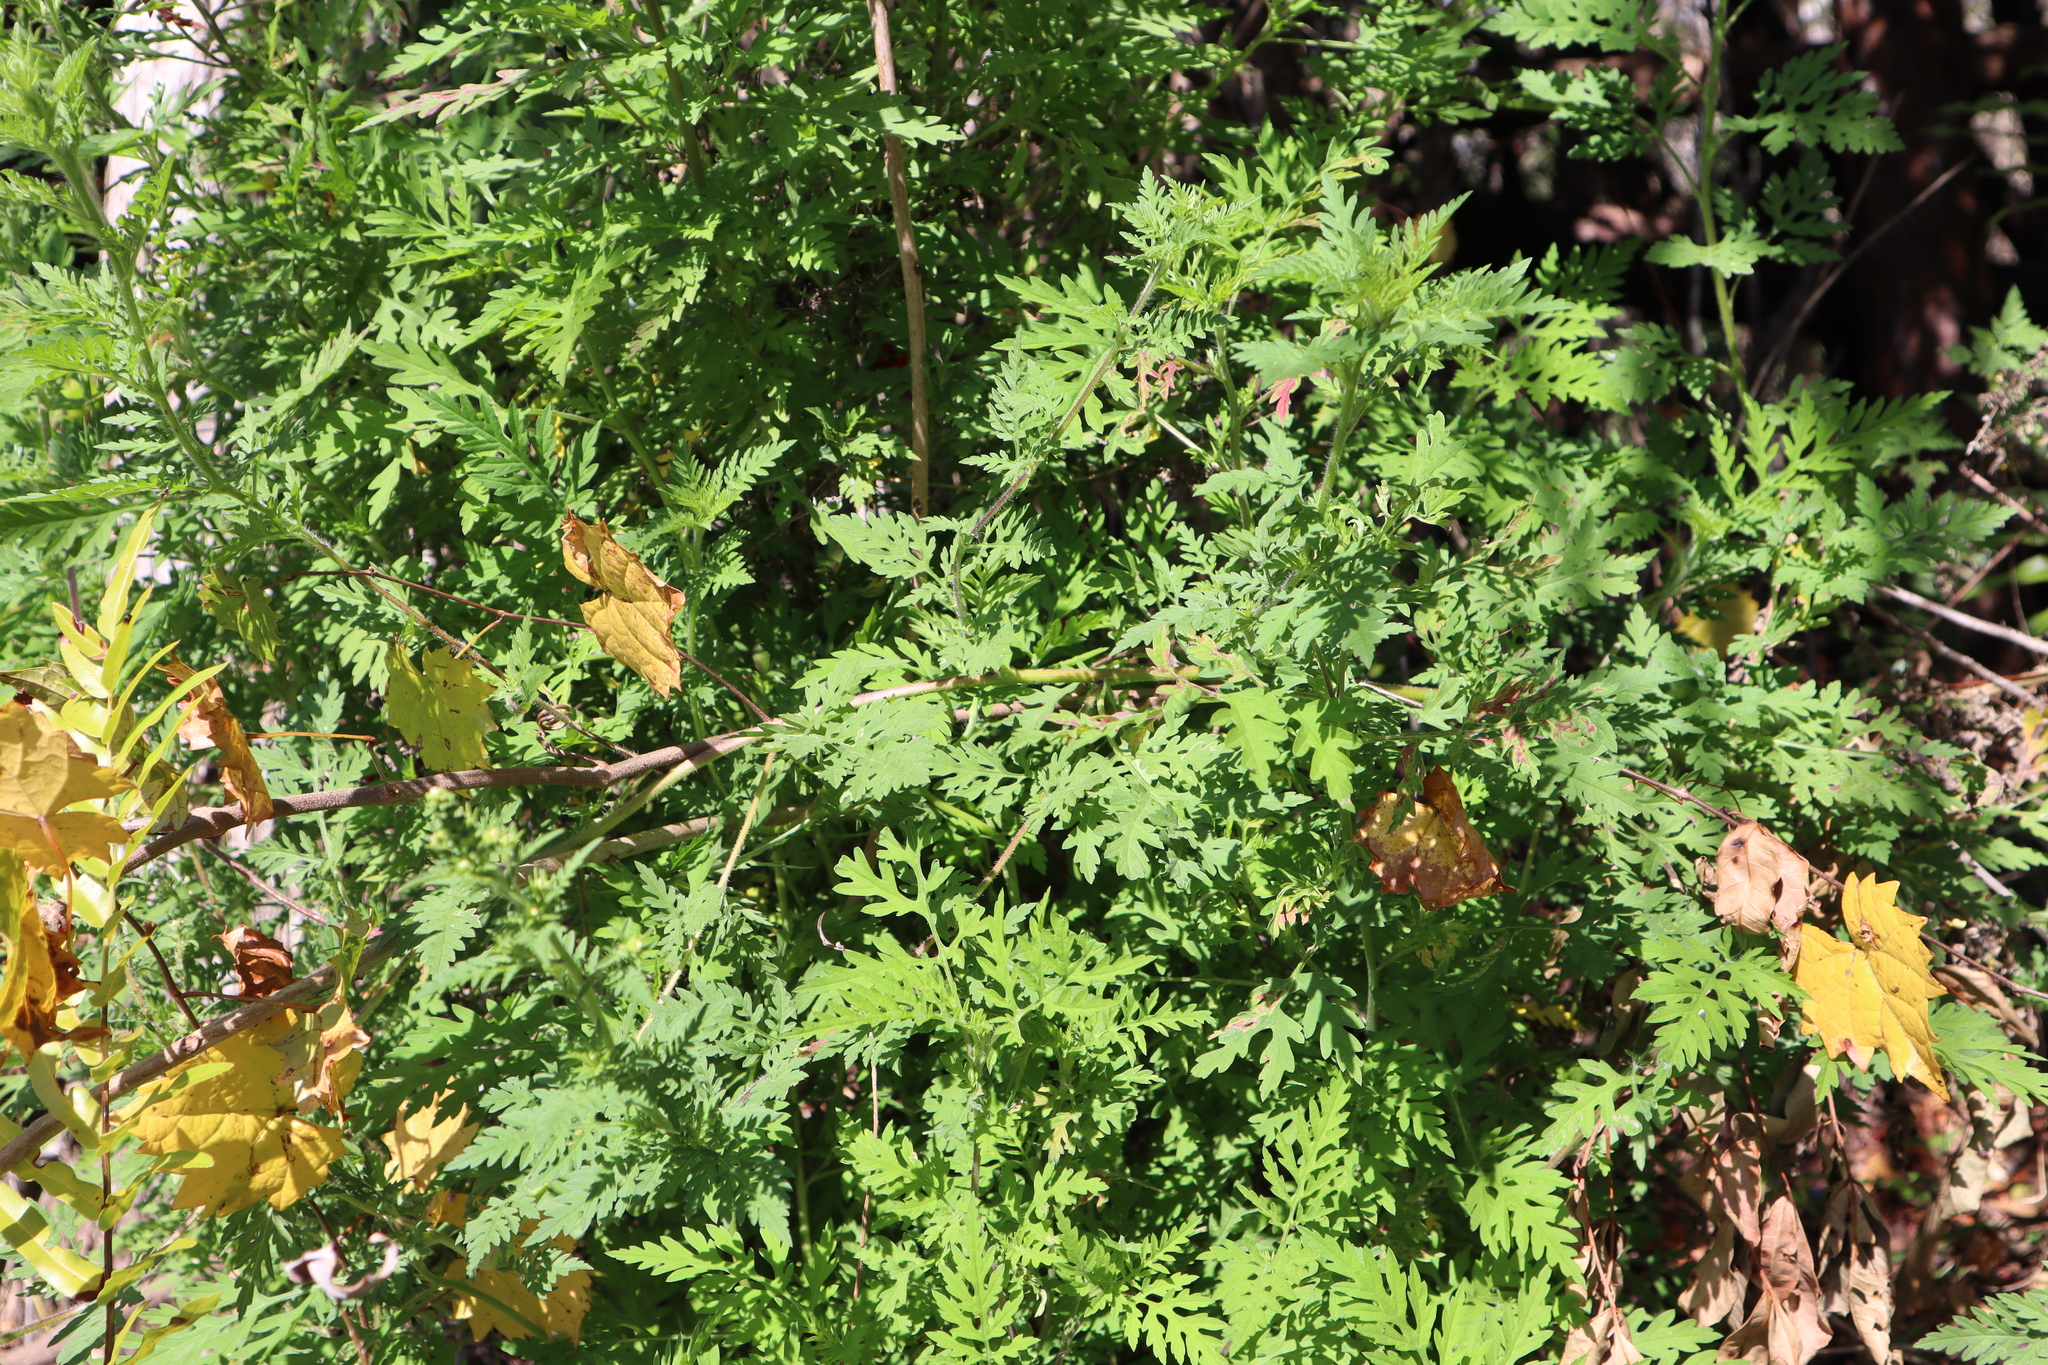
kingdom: Plantae
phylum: Tracheophyta
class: Magnoliopsida
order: Asterales
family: Asteraceae
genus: Ambrosia
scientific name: Ambrosia artemisiifolia
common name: Annual ragweed
